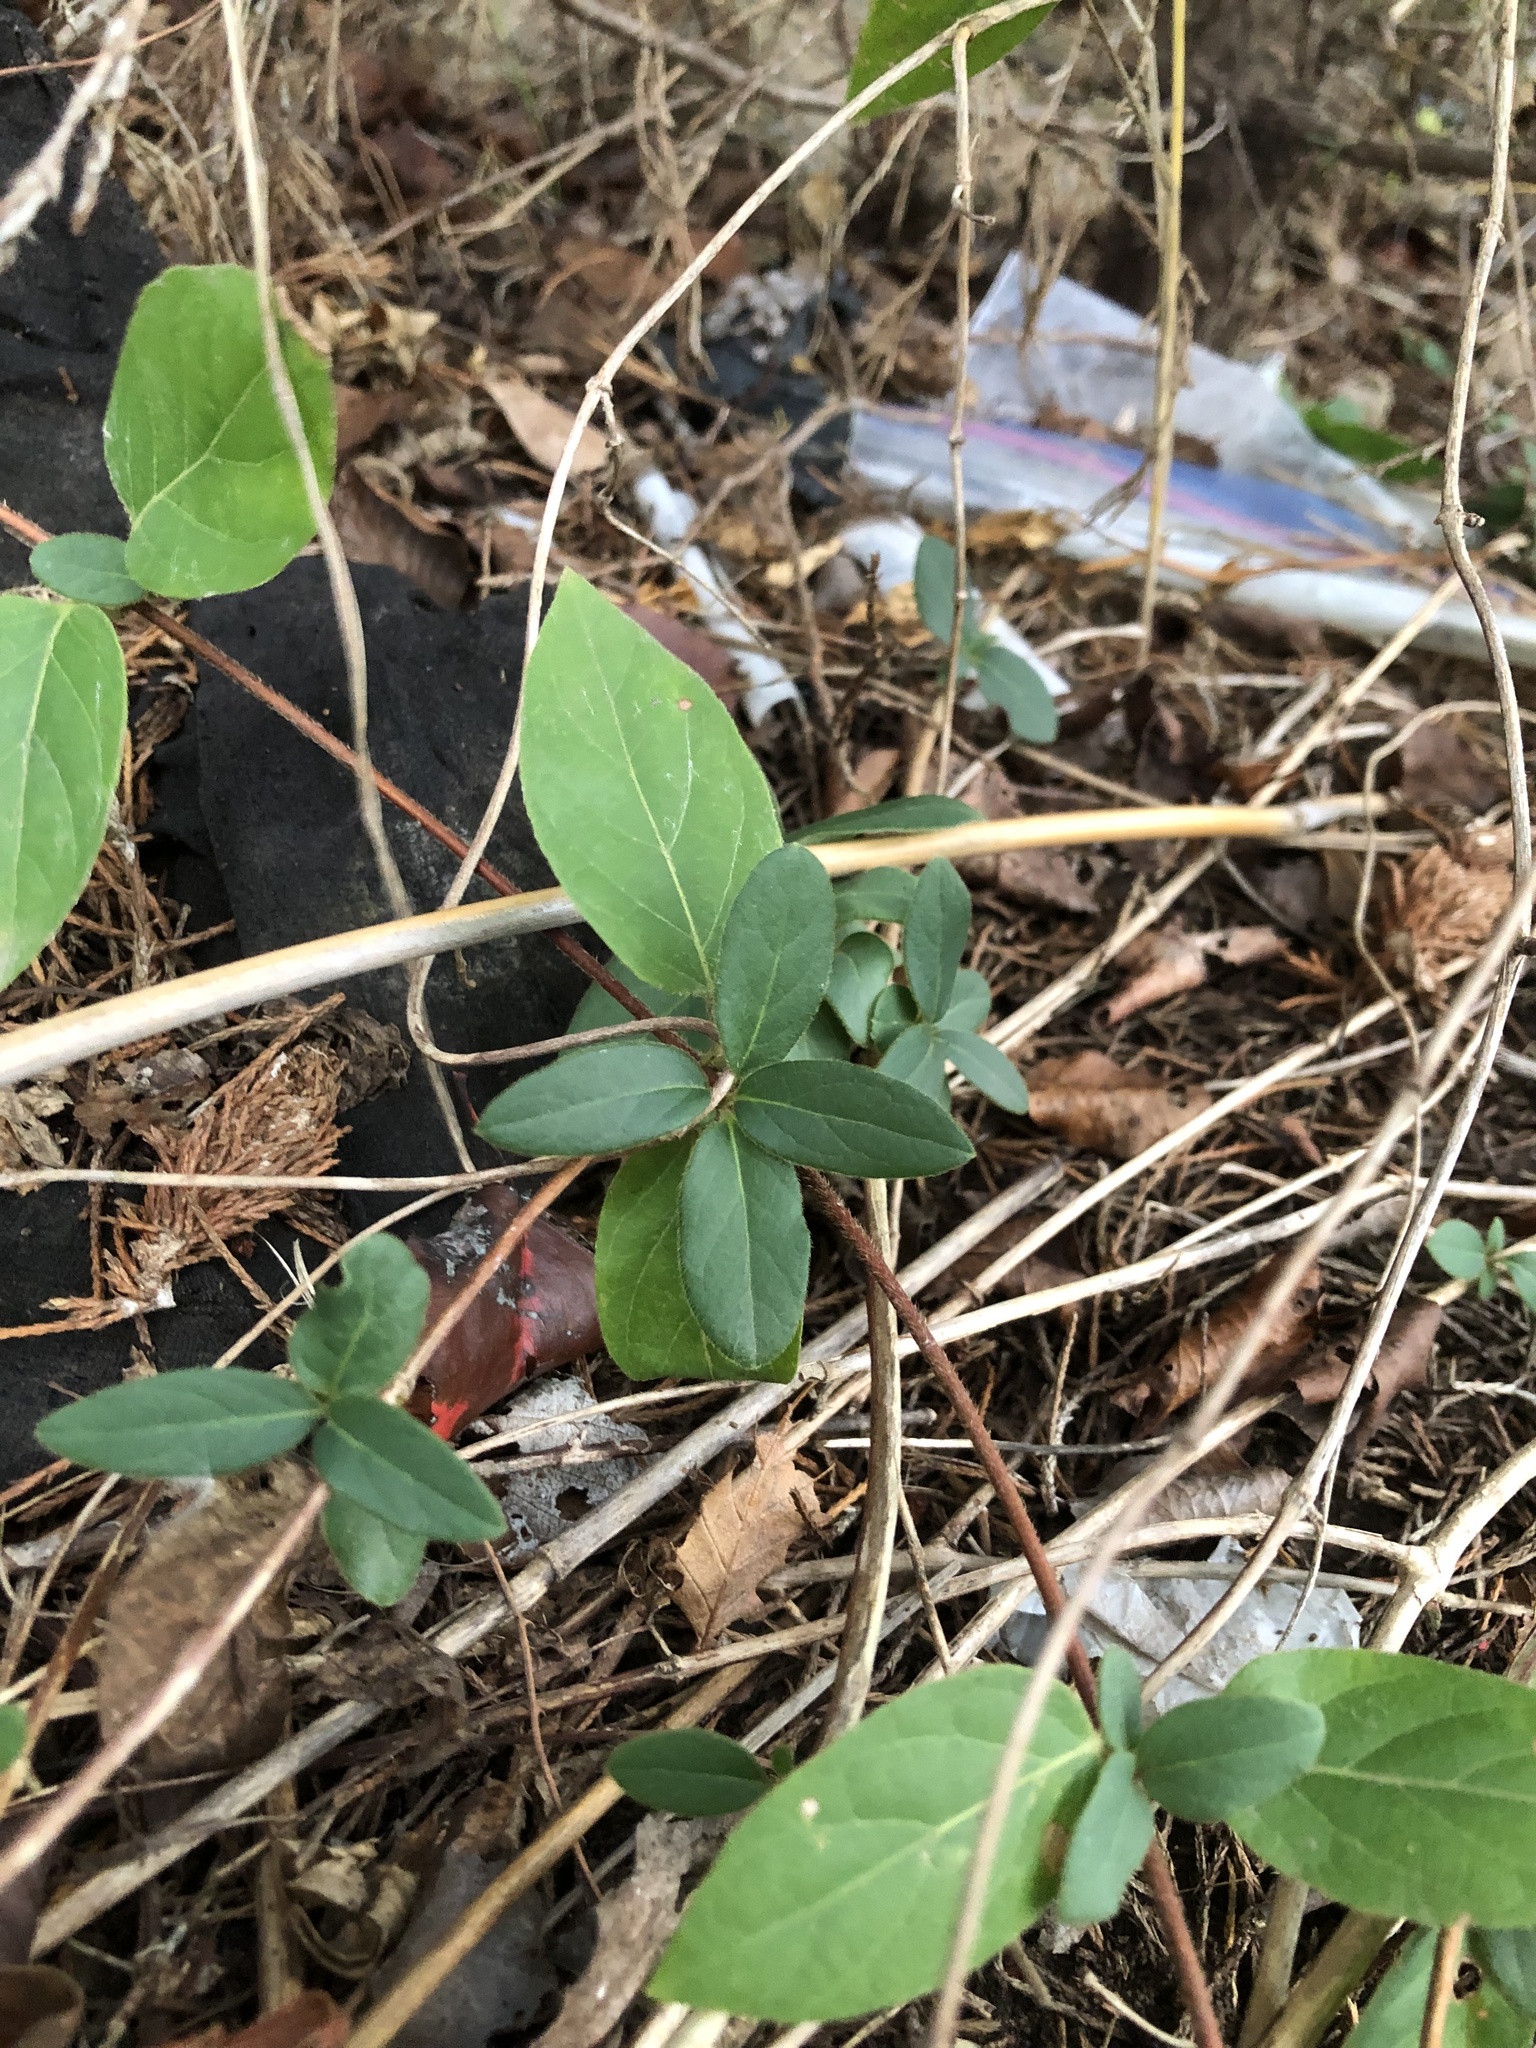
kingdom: Plantae
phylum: Tracheophyta
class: Magnoliopsida
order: Dipsacales
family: Caprifoliaceae
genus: Lonicera
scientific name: Lonicera japonica
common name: Japanese honeysuckle
